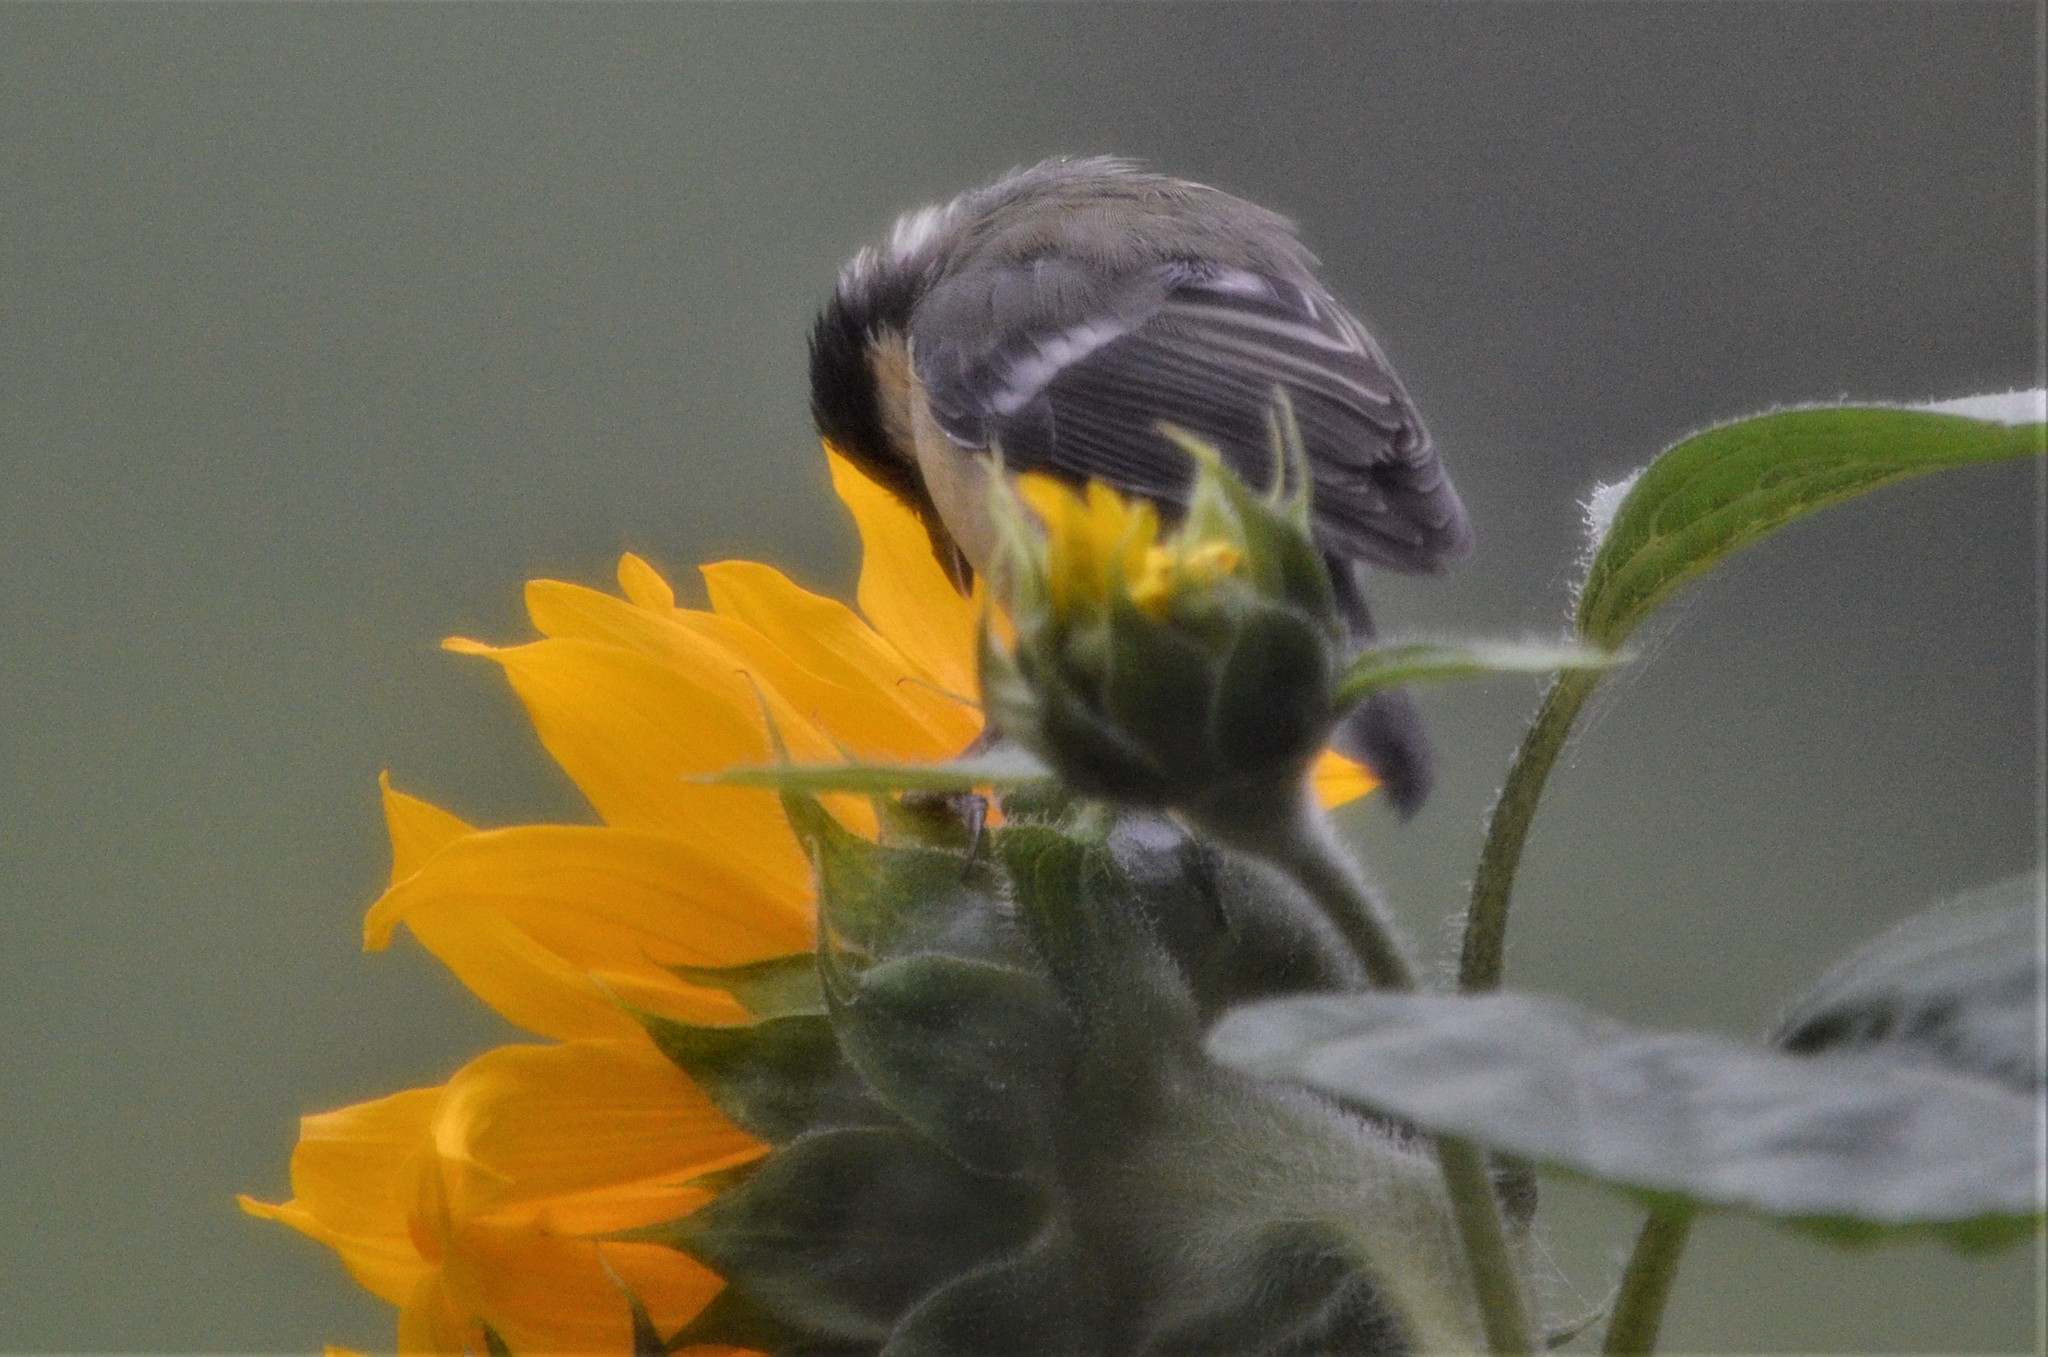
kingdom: Animalia
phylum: Chordata
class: Aves
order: Passeriformes
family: Paridae
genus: Parus
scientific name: Parus major
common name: Great tit
